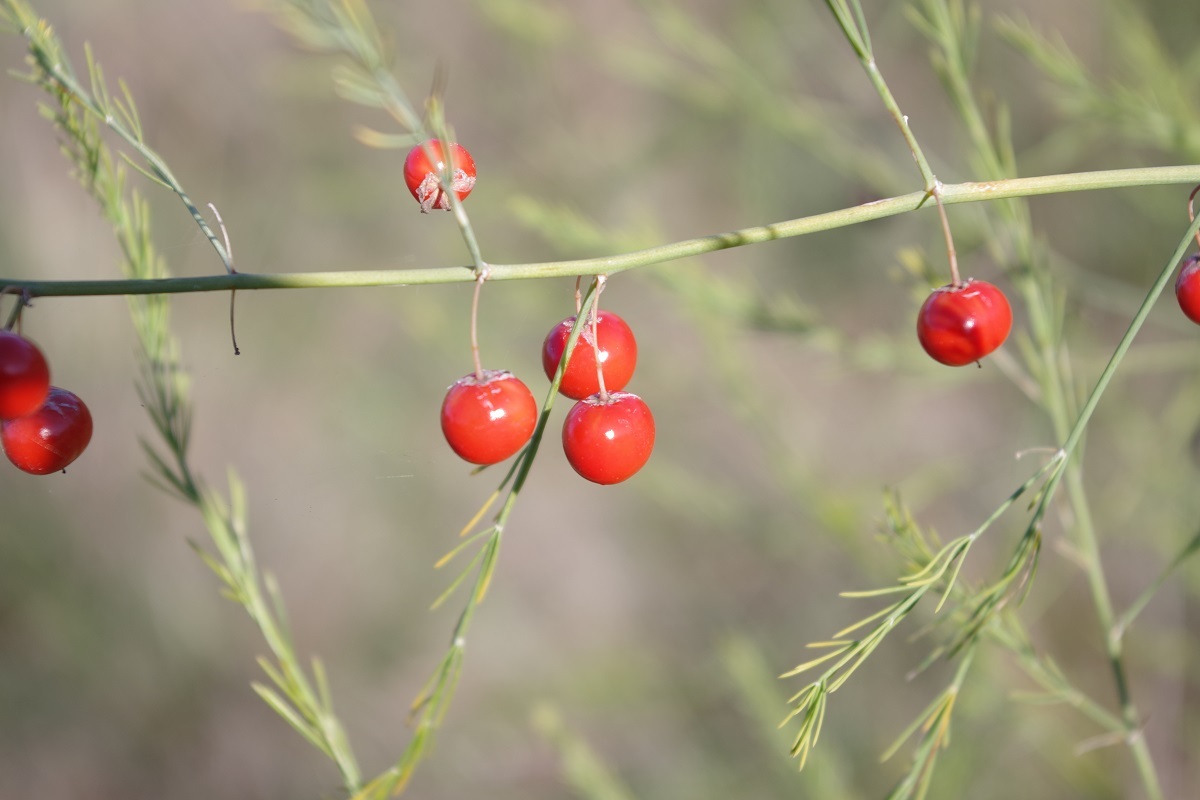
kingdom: Plantae
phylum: Tracheophyta
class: Liliopsida
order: Asparagales
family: Asparagaceae
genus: Asparagus
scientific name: Asparagus officinalis
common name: Garden asparagus
